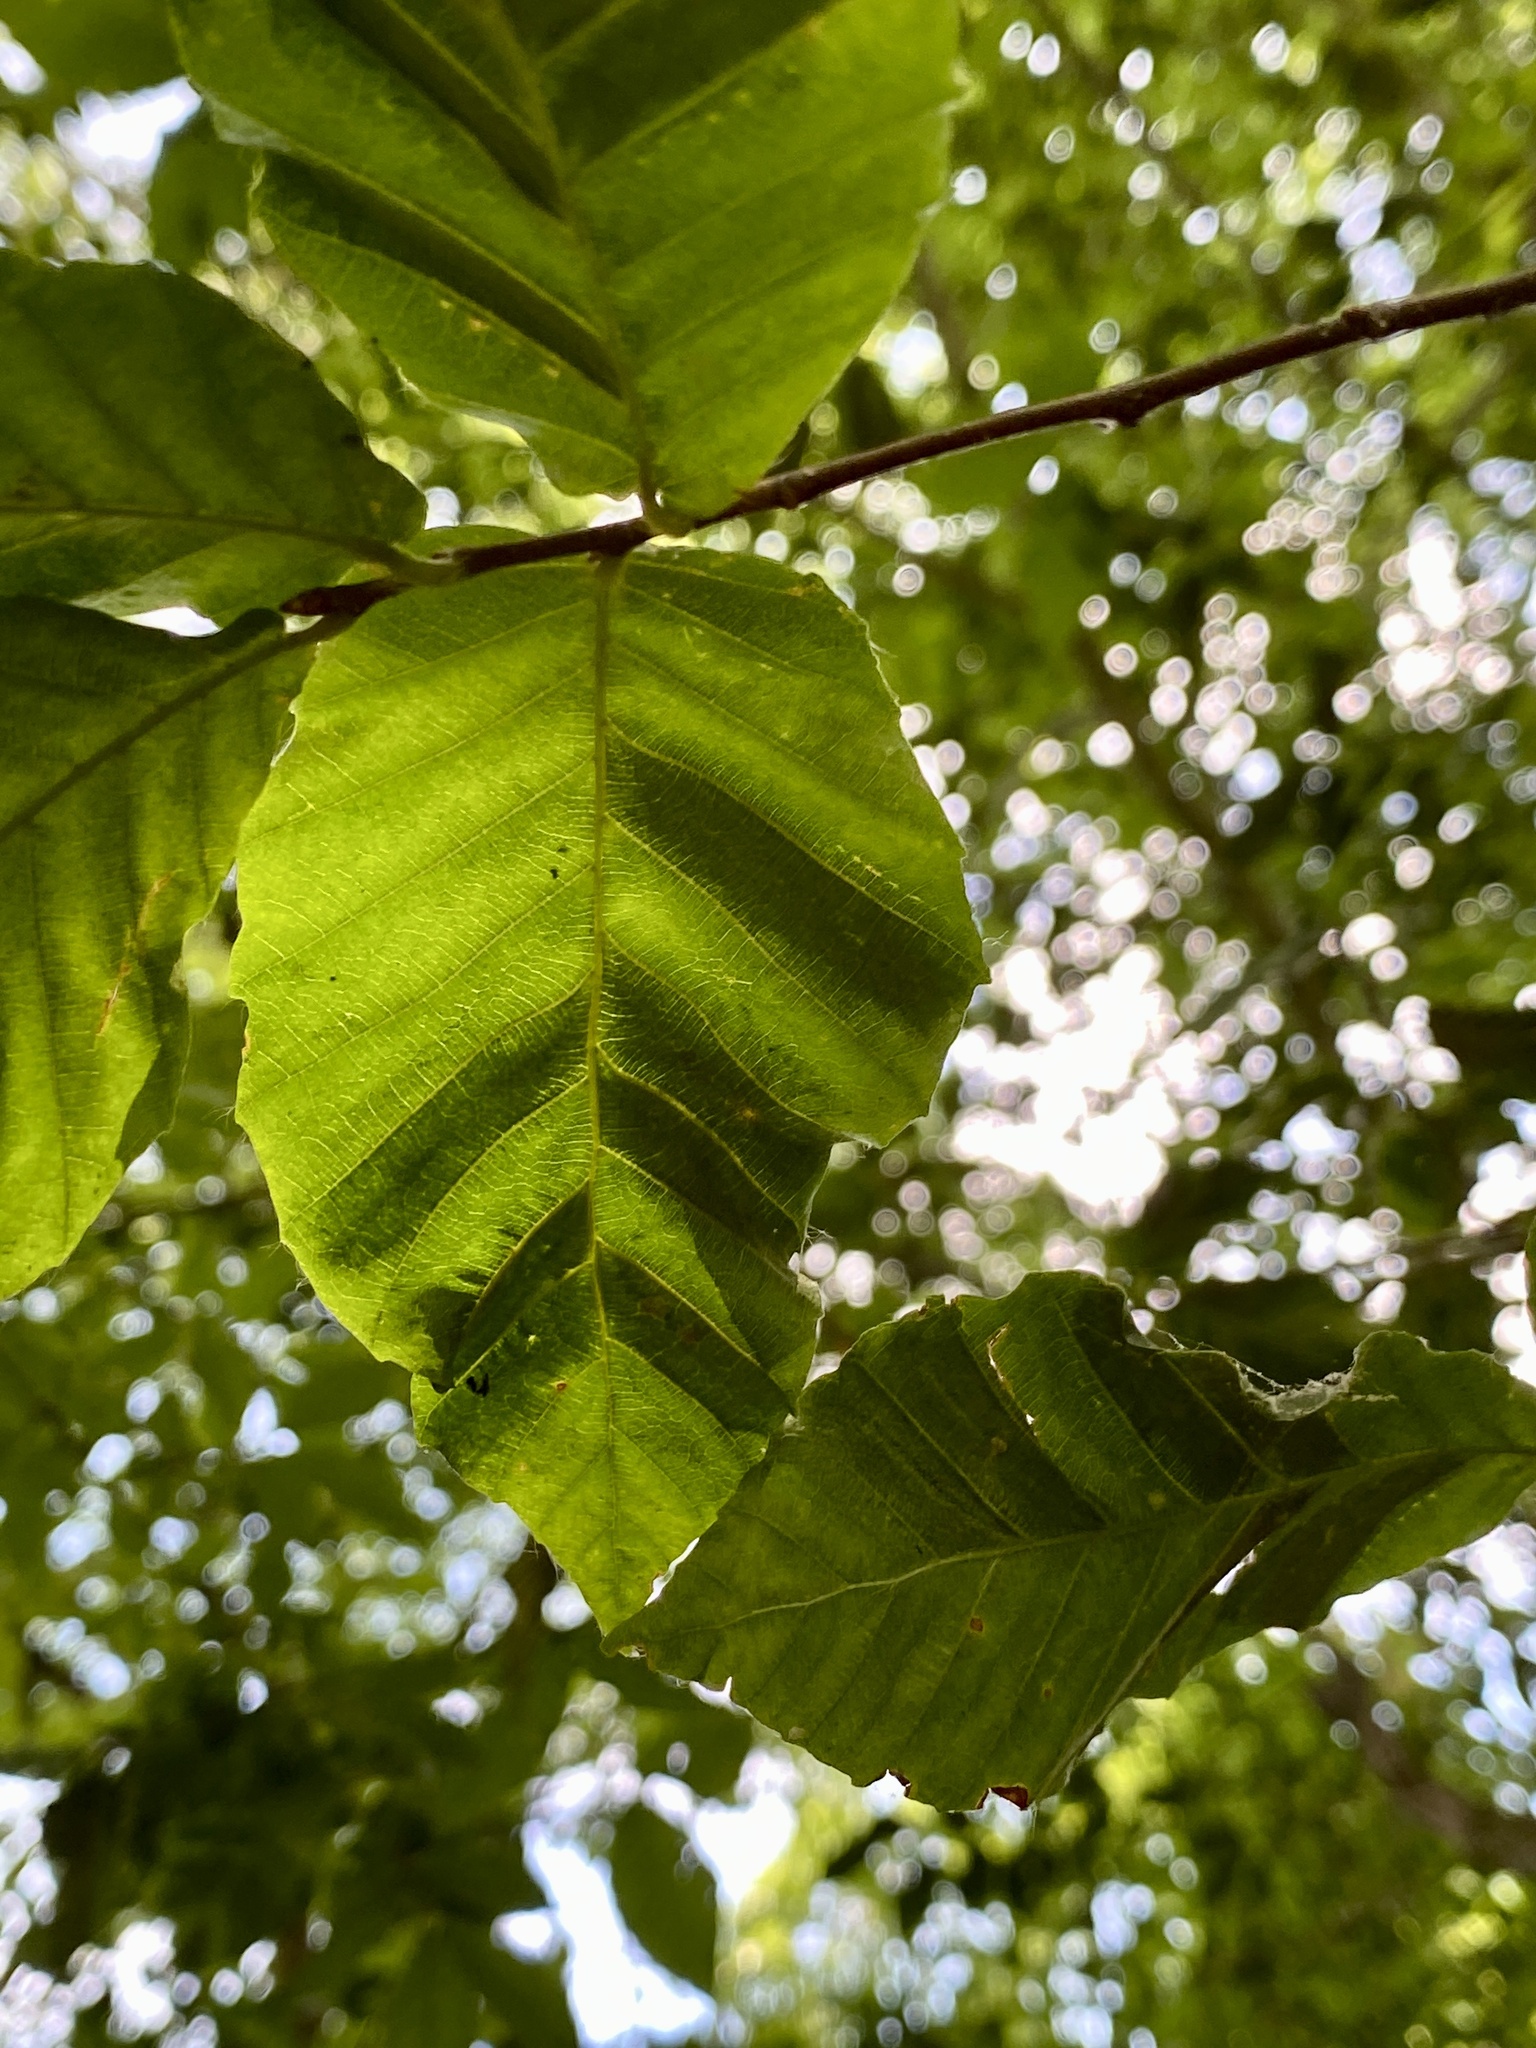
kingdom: Animalia
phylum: Nematoda
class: Chromadorea
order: Rhabditida
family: Anguinidae
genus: Litylenchus
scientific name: Litylenchus crenatae
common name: Beech leaf disease
